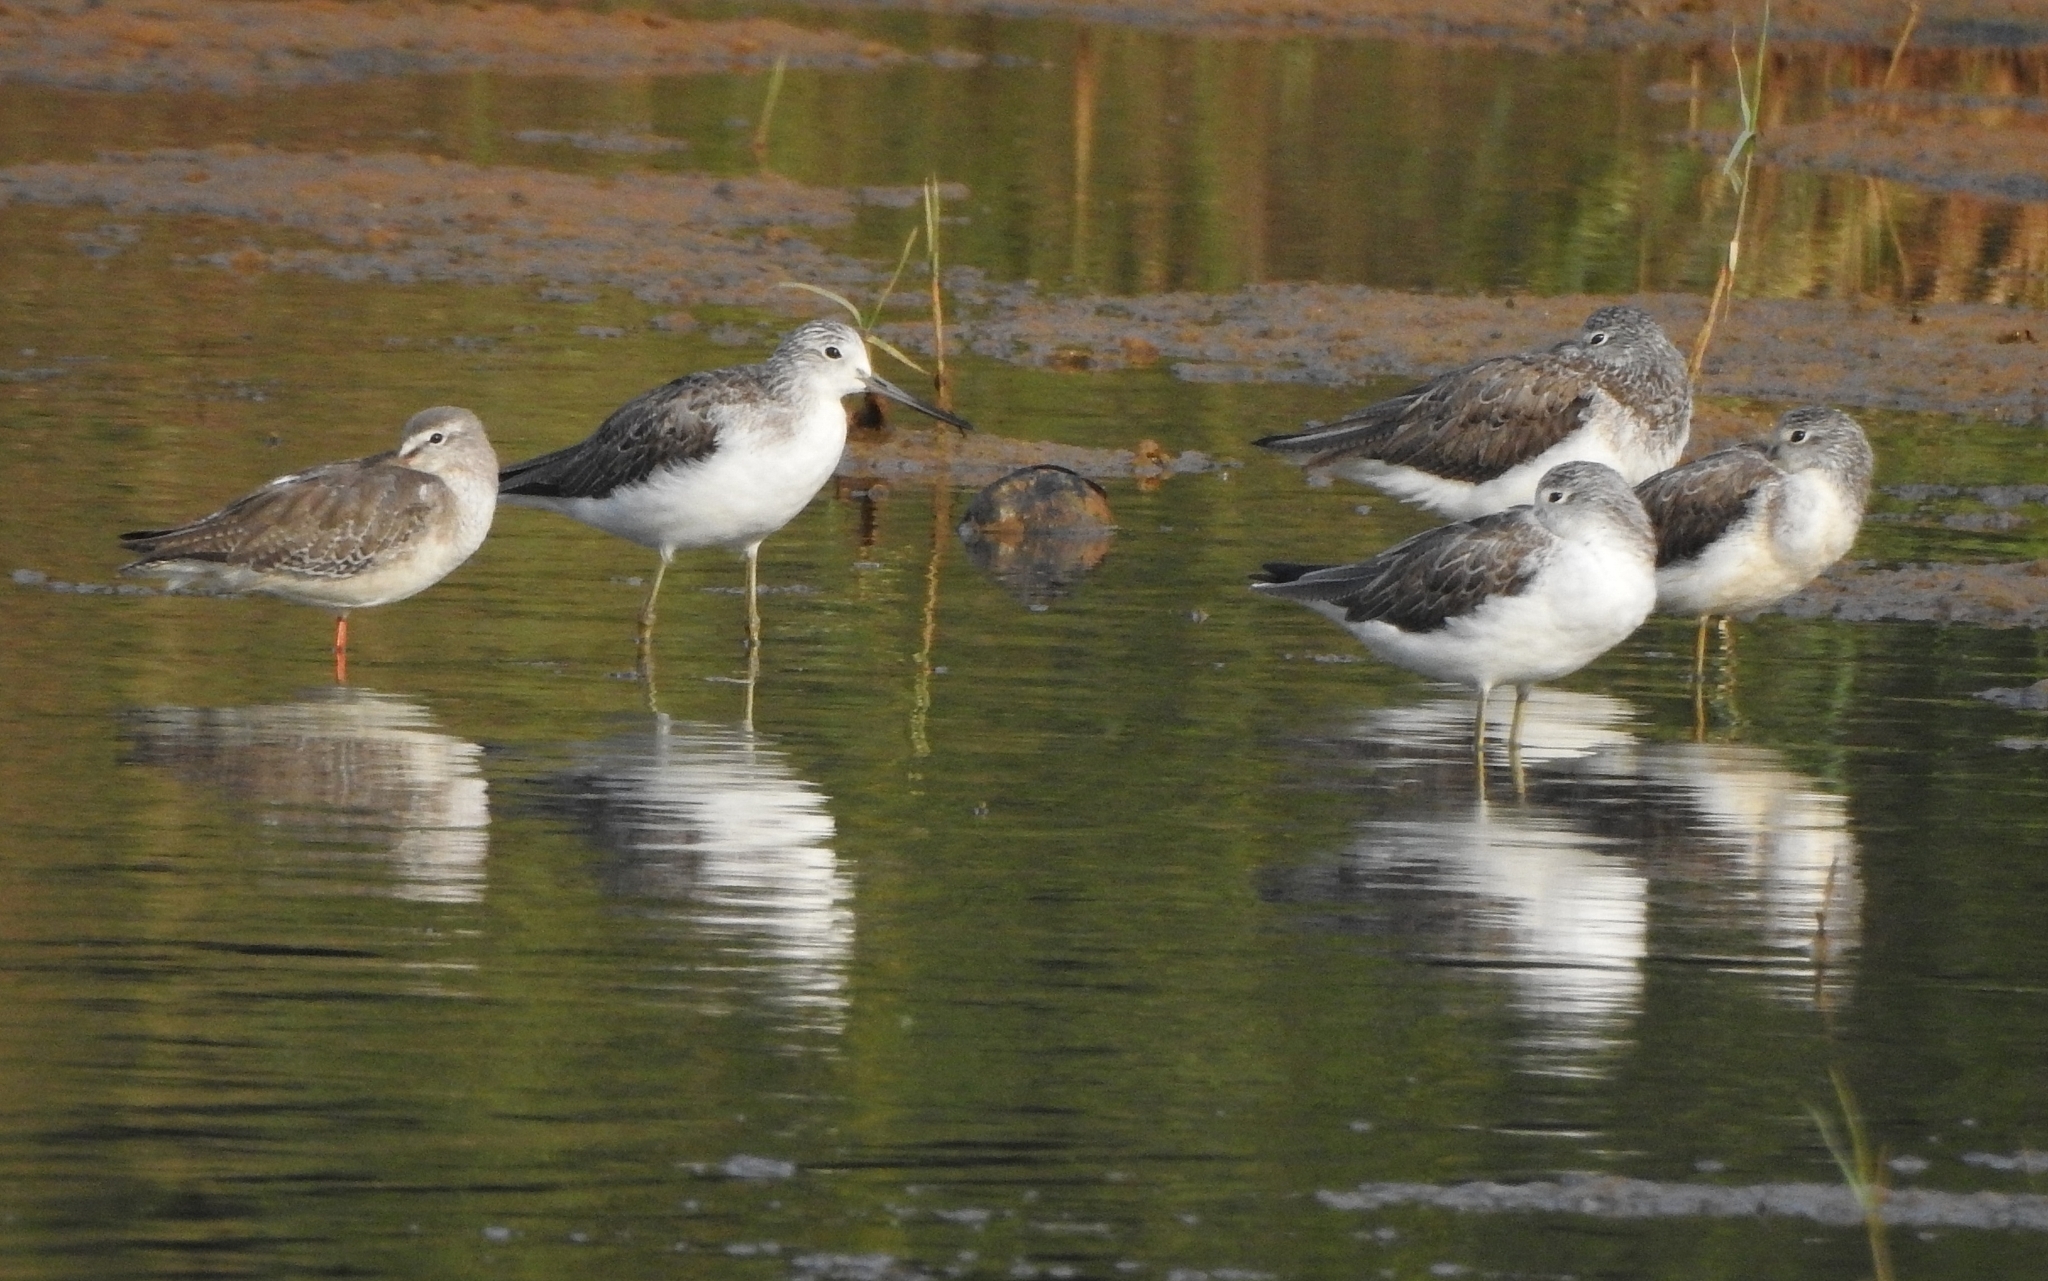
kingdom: Animalia
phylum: Chordata
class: Aves
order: Charadriiformes
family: Scolopacidae
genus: Tringa
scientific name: Tringa erythropus
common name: Spotted redshank
